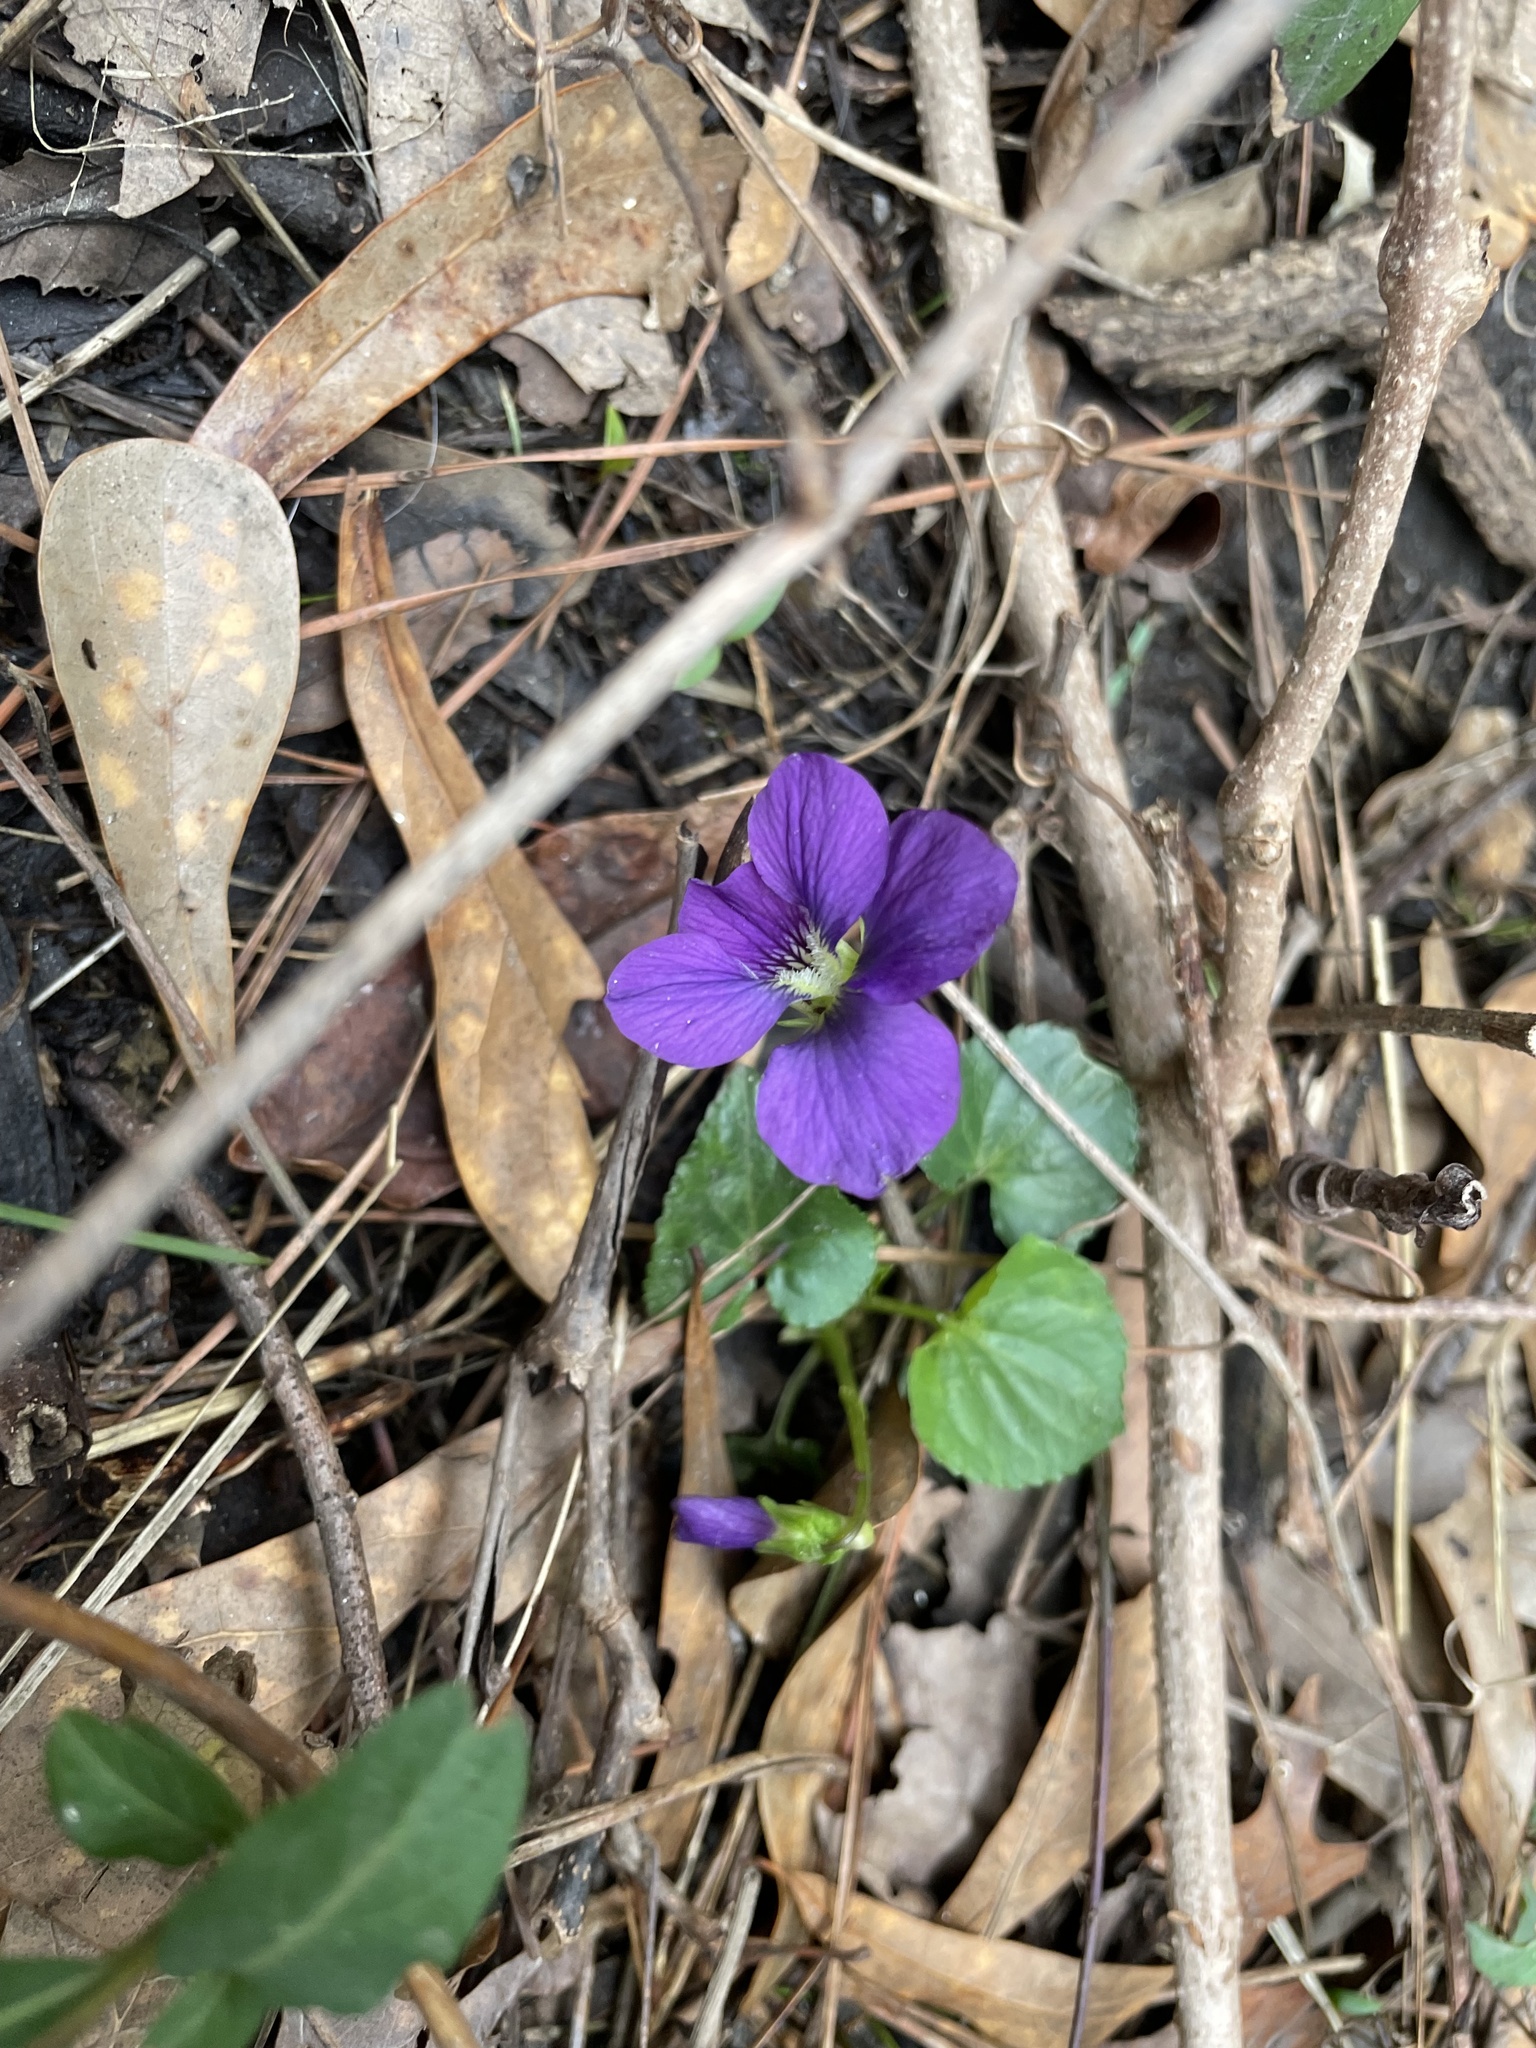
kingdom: Plantae
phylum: Tracheophyta
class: Magnoliopsida
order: Malpighiales
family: Violaceae
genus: Viola
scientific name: Viola sororia
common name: Dooryard violet
